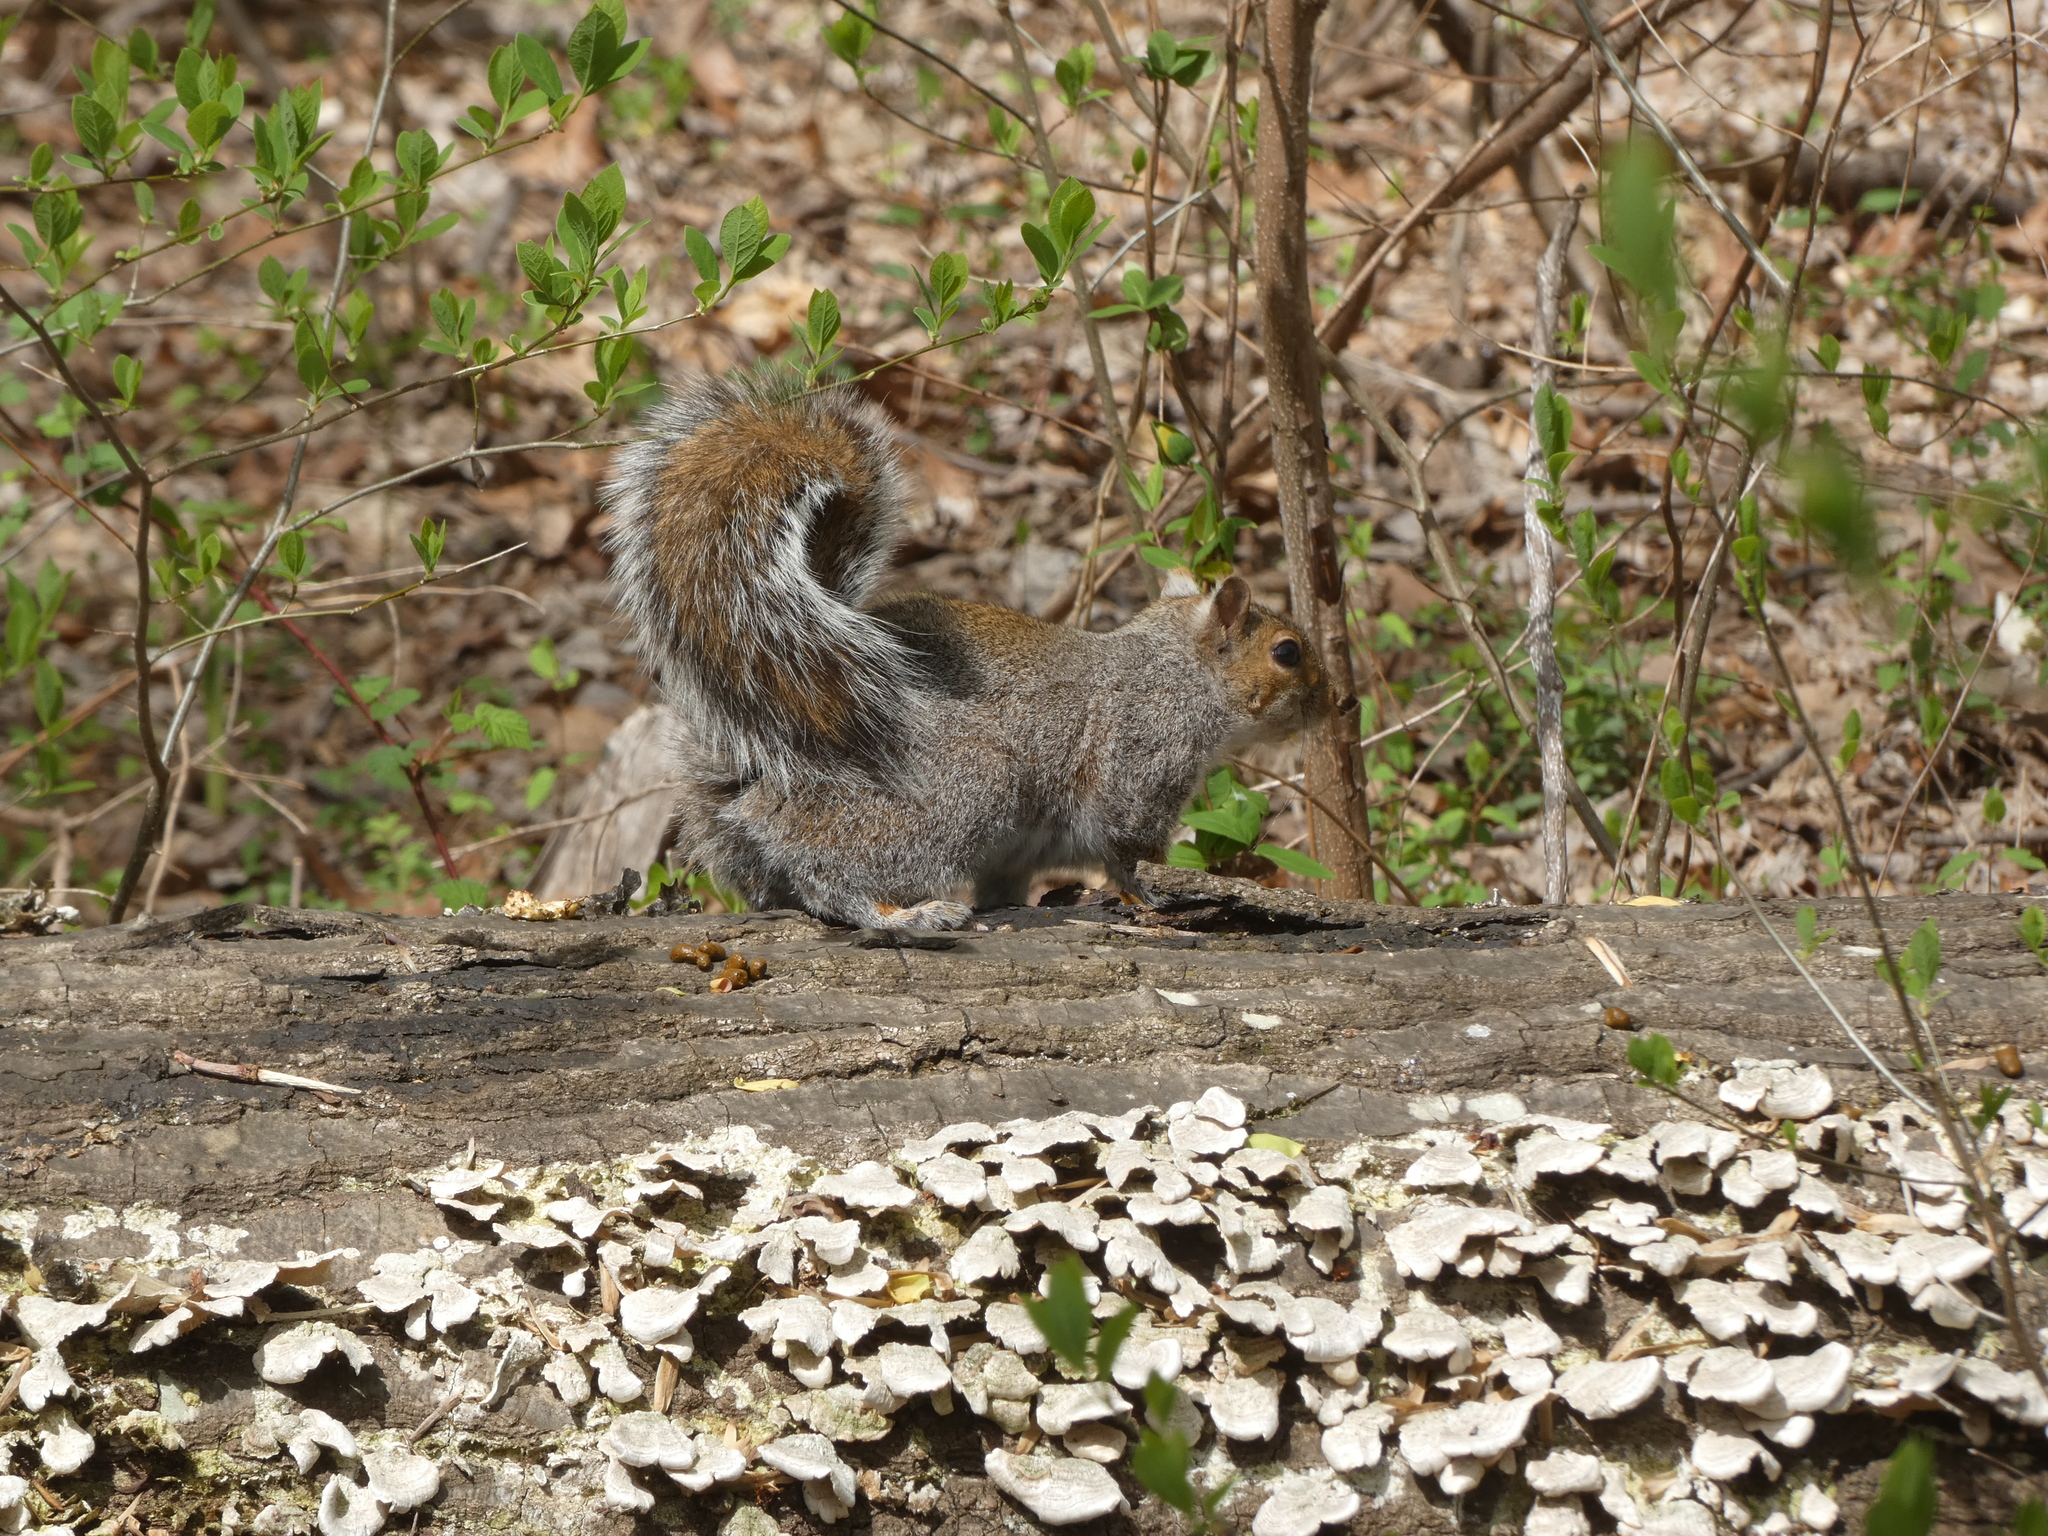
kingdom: Animalia
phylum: Chordata
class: Mammalia
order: Rodentia
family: Sciuridae
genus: Sciurus
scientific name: Sciurus carolinensis
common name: Eastern gray squirrel
